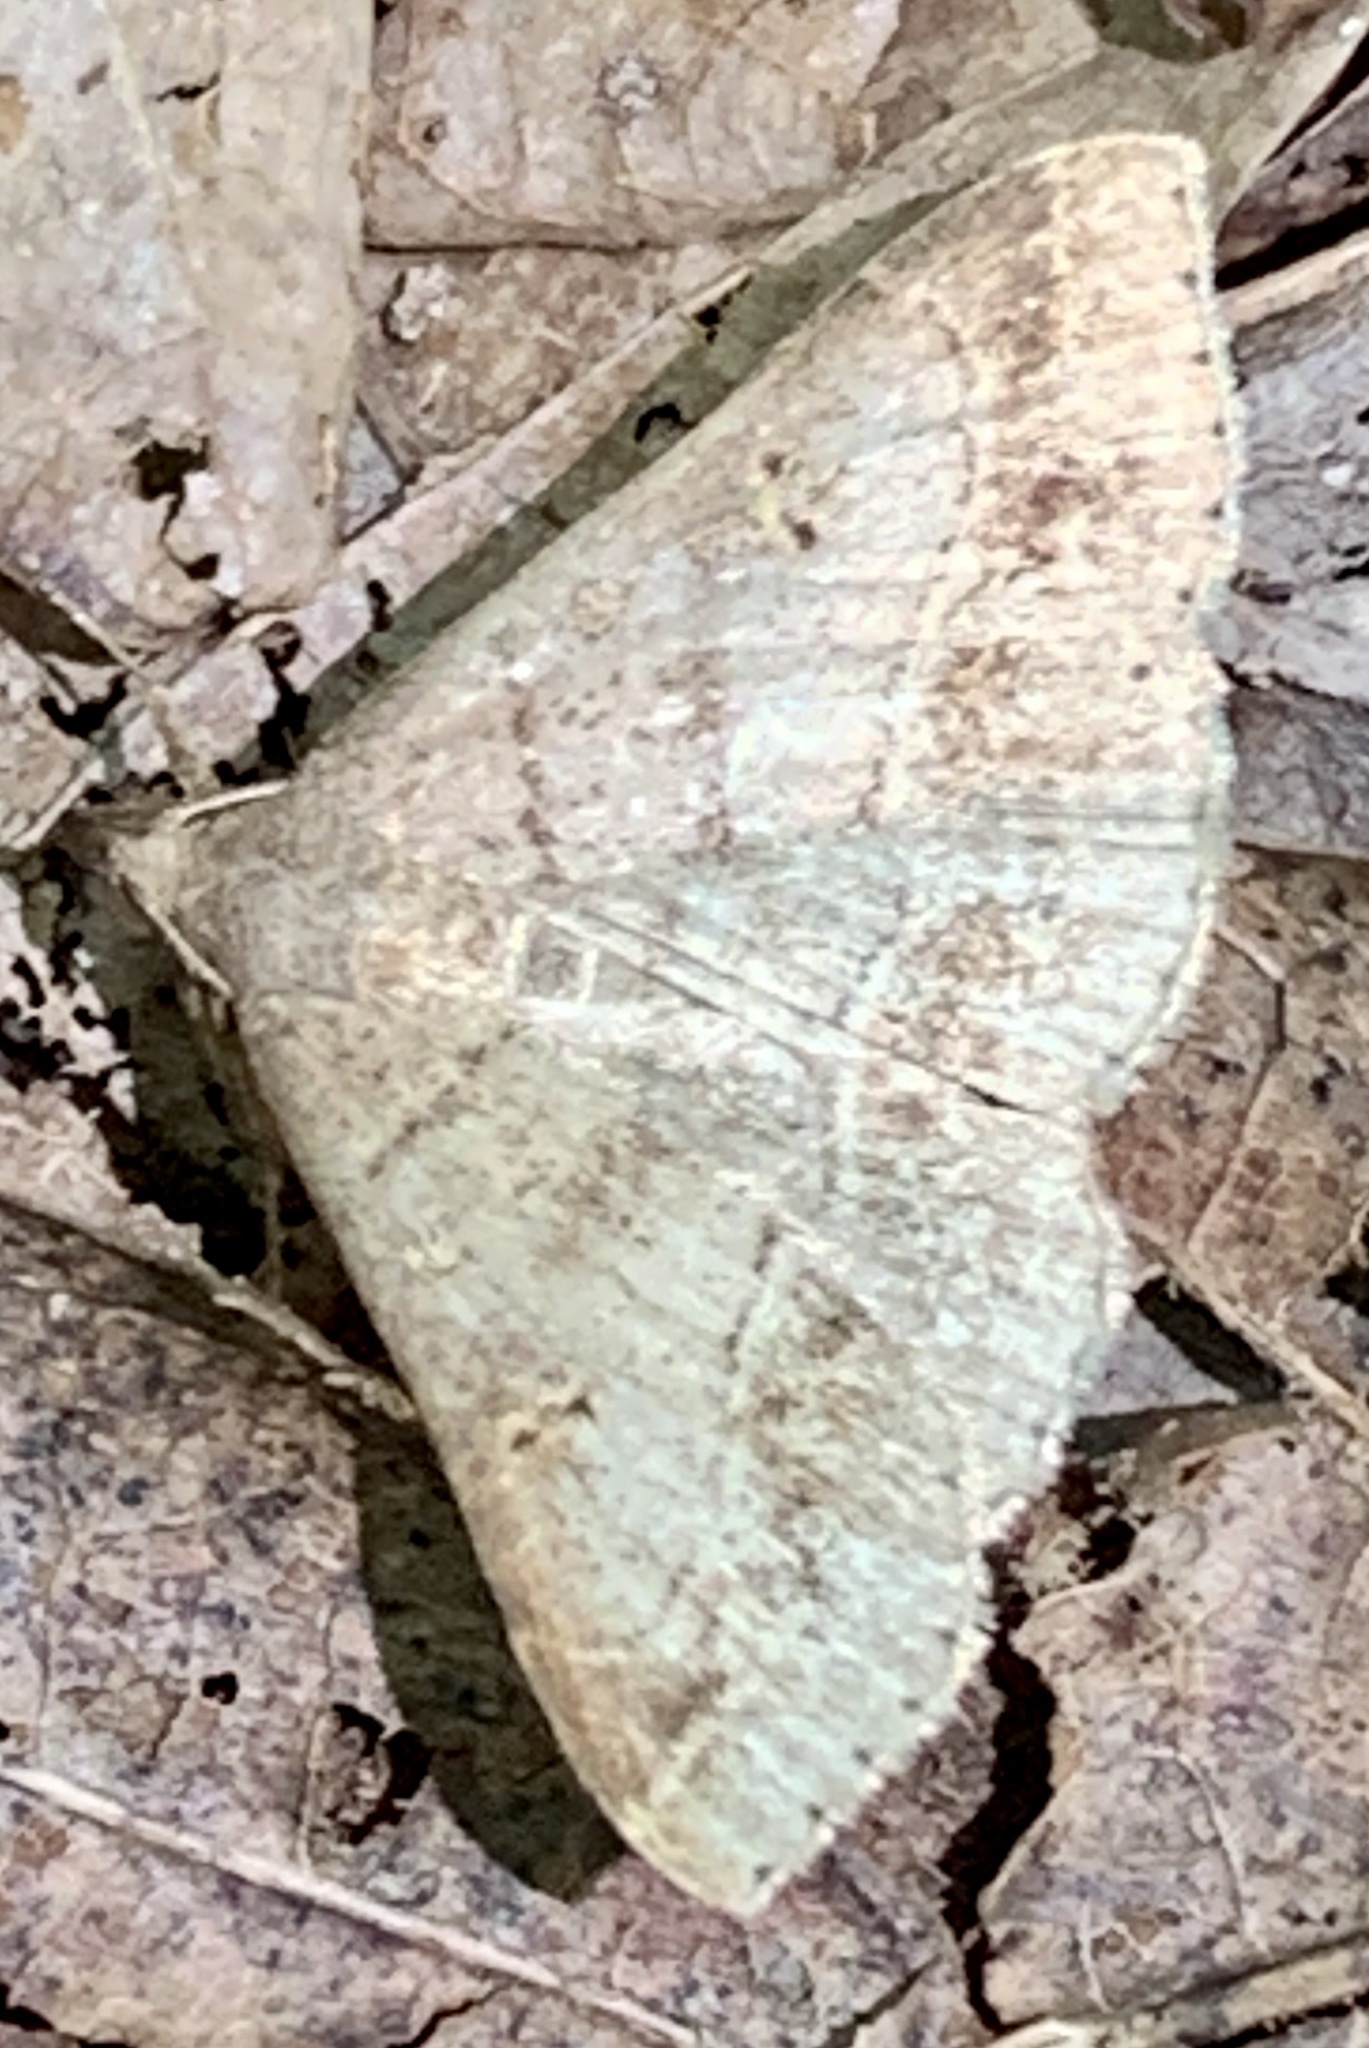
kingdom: Animalia
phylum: Arthropoda
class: Insecta
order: Lepidoptera
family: Erebidae
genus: Renia
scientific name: Renia flavipunctalis
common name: Yellow-spotted renia moth
